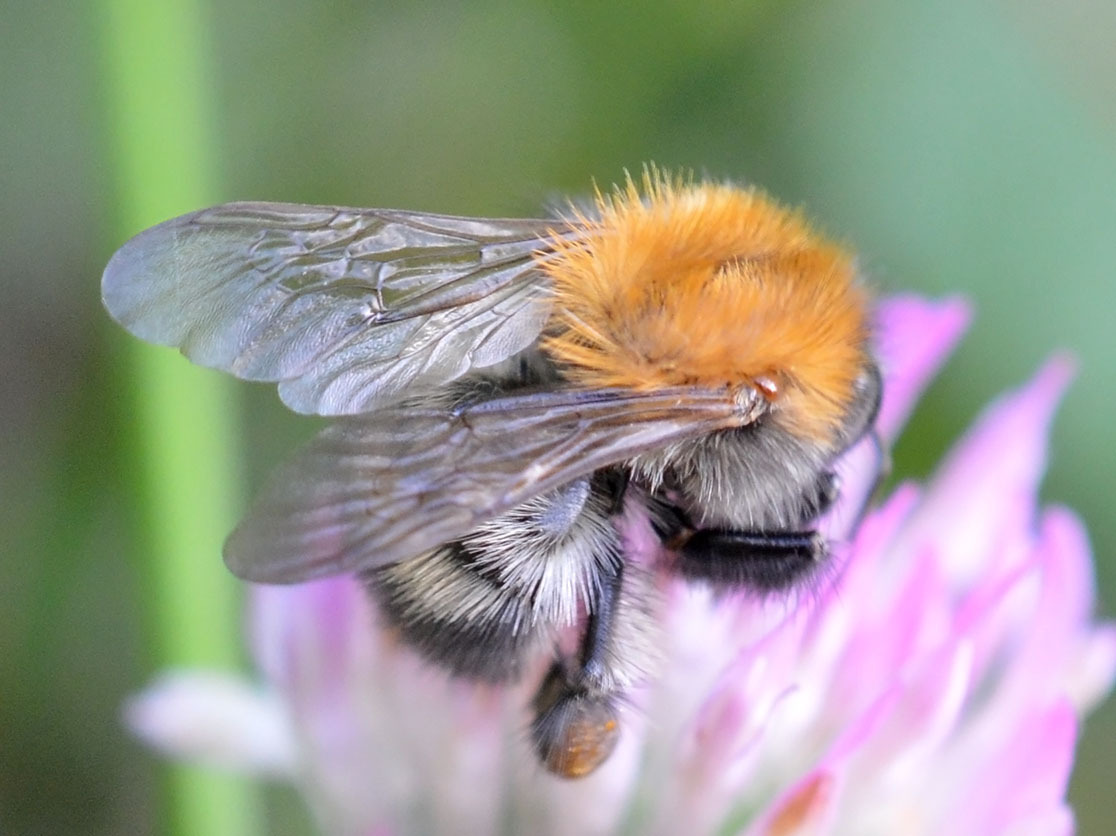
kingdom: Animalia
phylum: Arthropoda
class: Insecta
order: Hymenoptera
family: Apidae
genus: Bombus
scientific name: Bombus pascuorum
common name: Common carder bee
